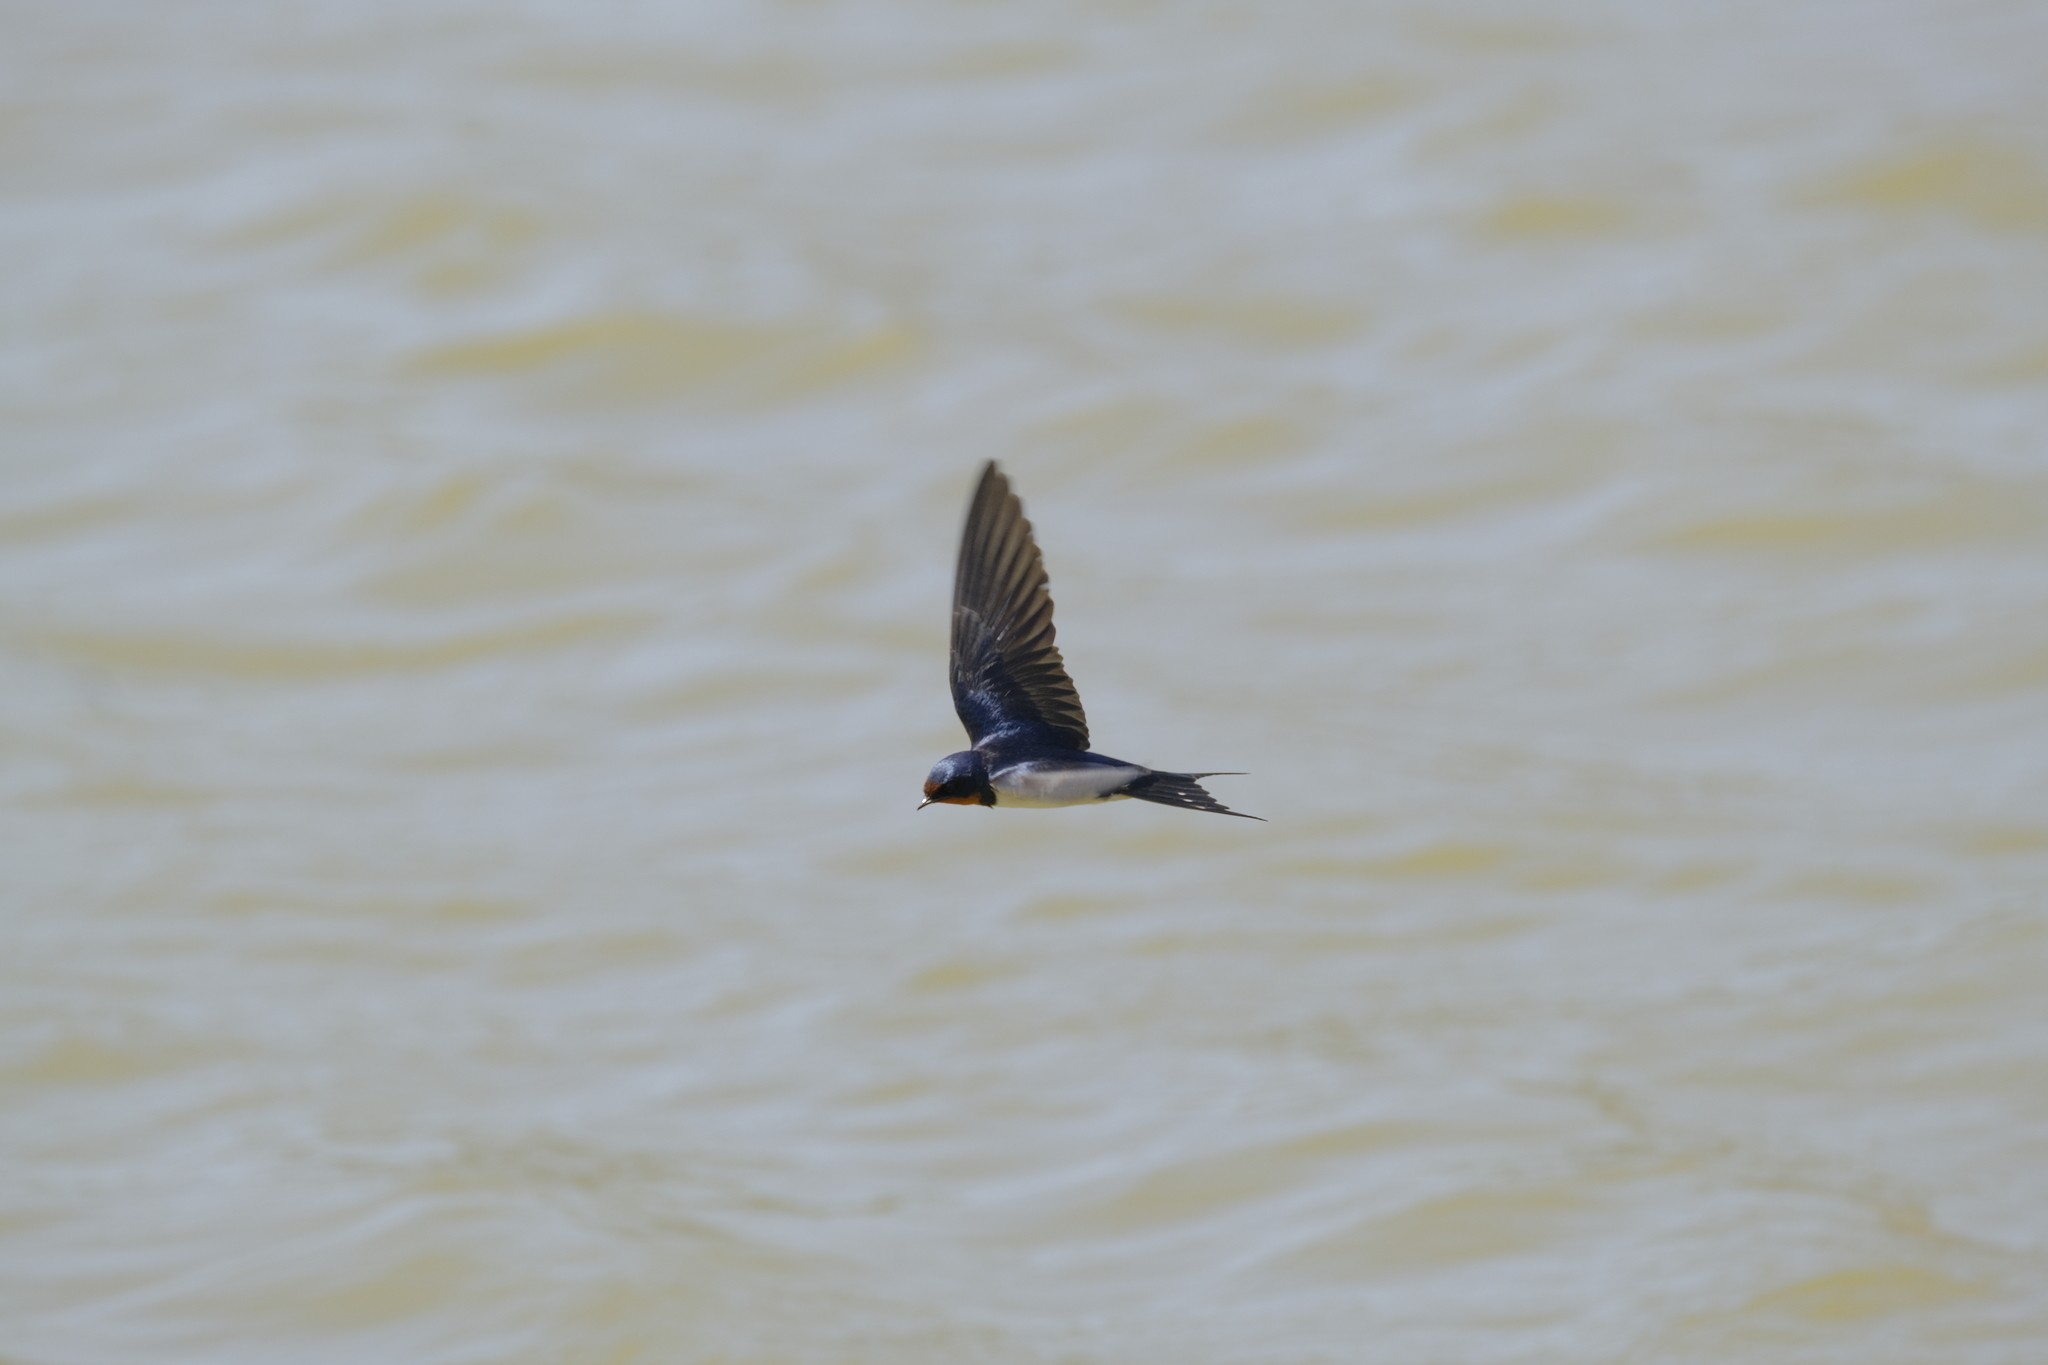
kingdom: Animalia
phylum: Chordata
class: Aves
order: Passeriformes
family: Hirundinidae
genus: Hirundo
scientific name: Hirundo rustica
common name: Barn swallow
